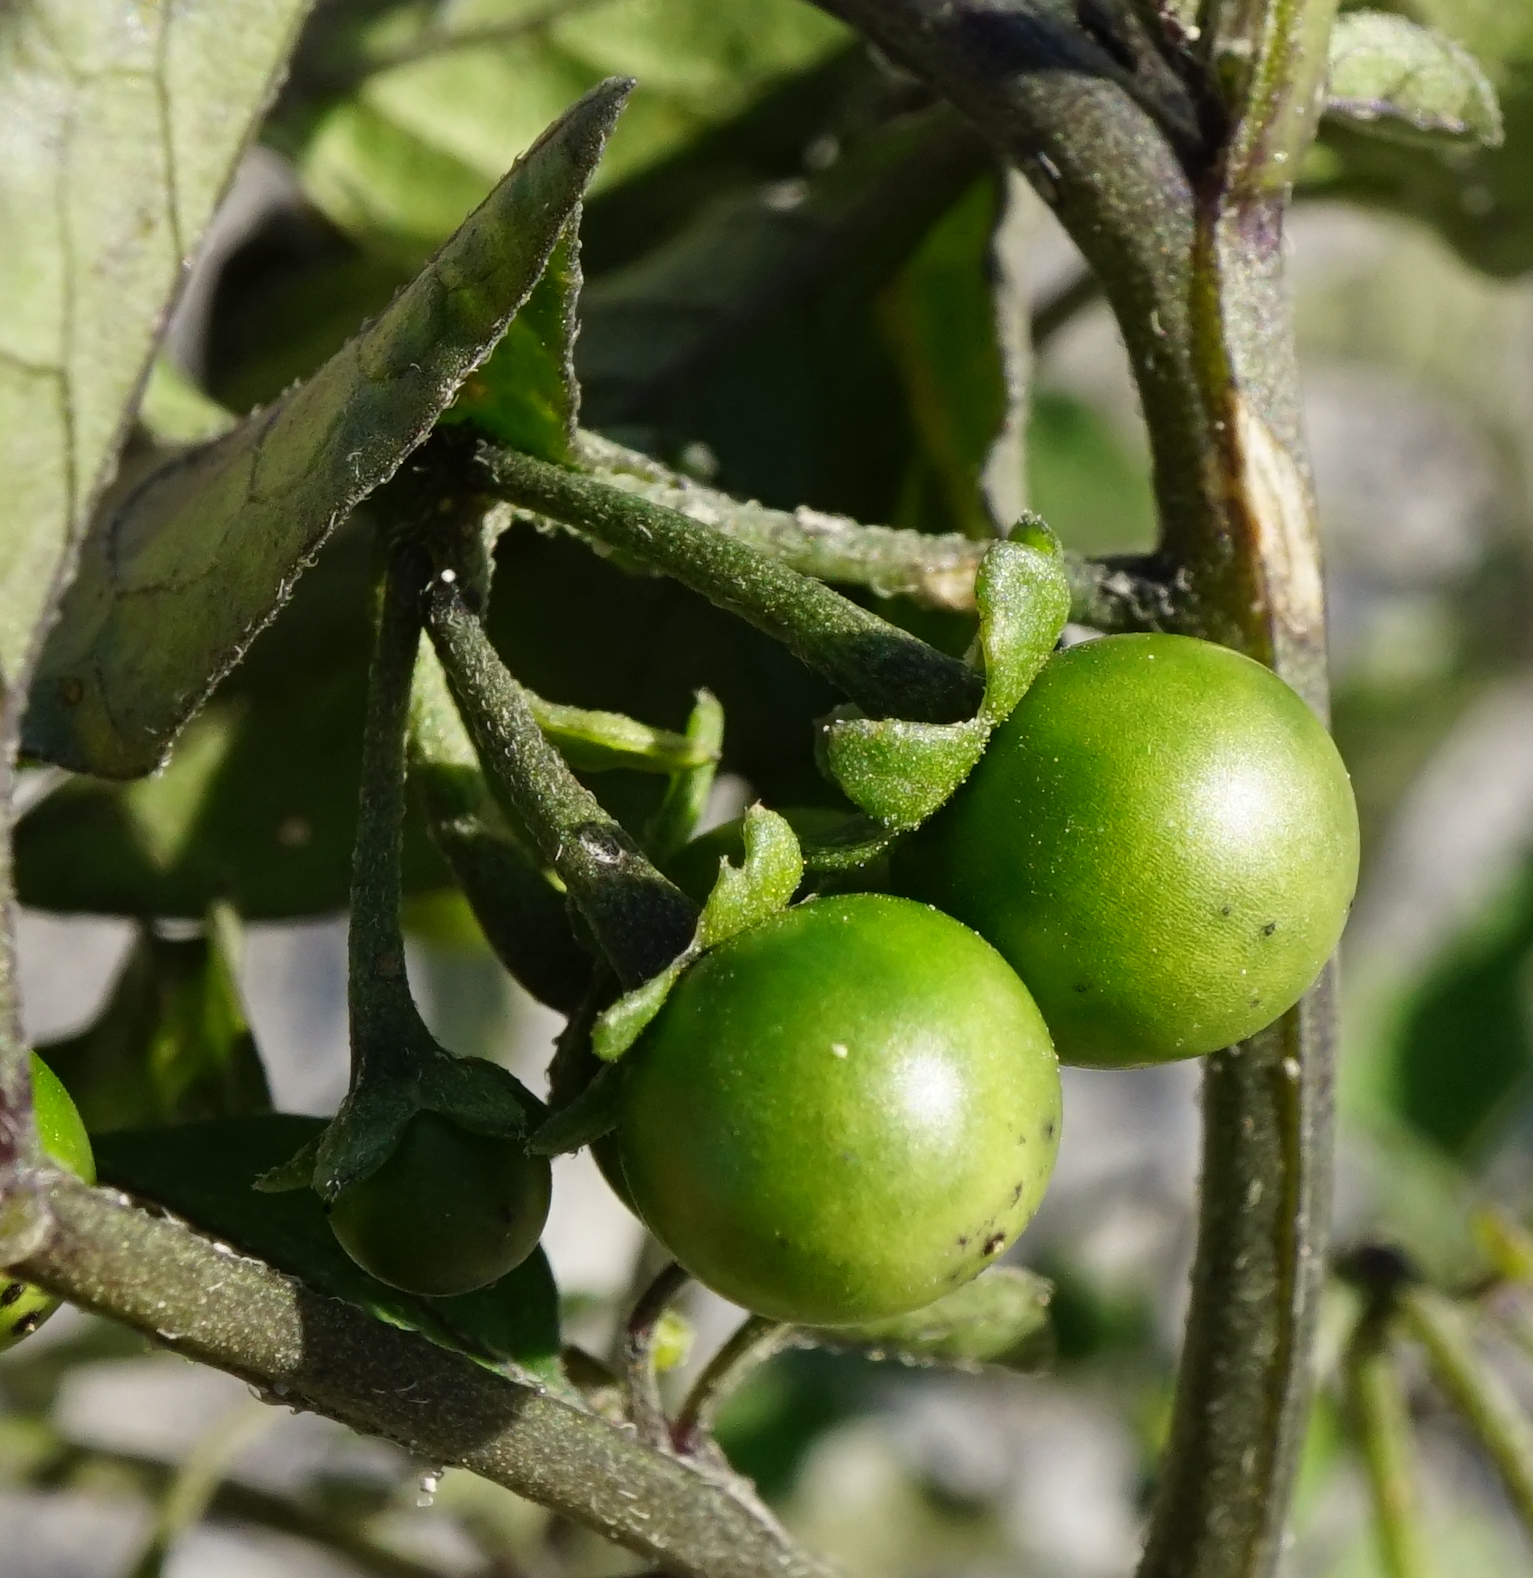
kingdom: Plantae
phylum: Tracheophyta
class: Magnoliopsida
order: Solanales
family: Solanaceae
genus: Solanum
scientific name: Solanum nigrum
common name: Black nightshade
